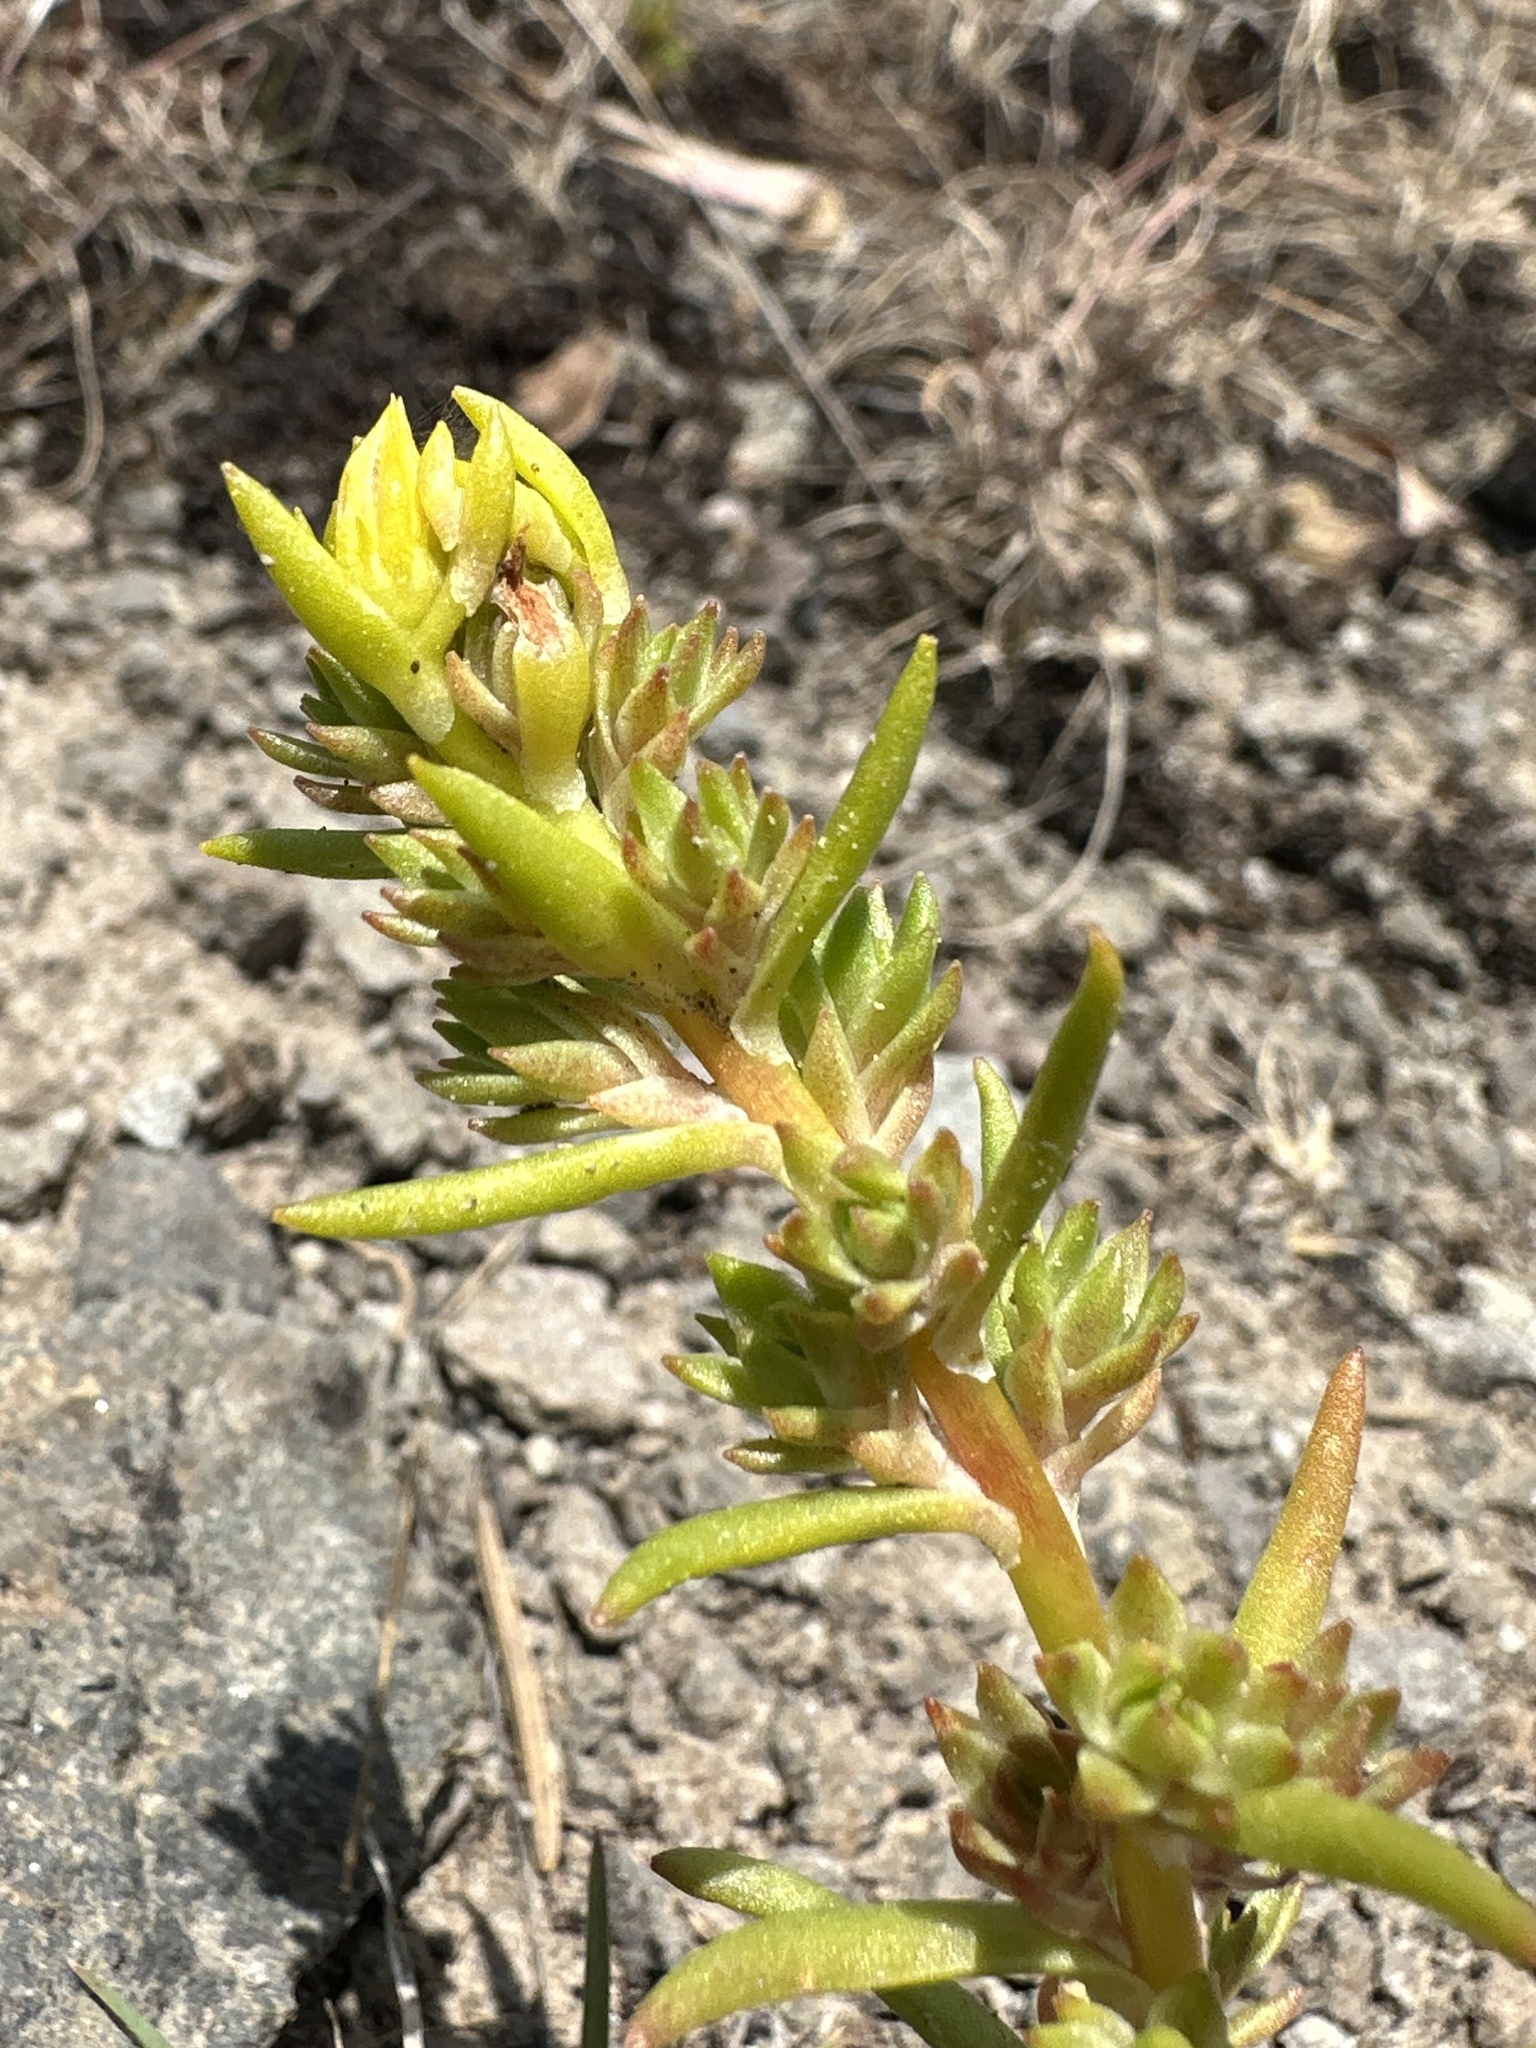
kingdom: Plantae
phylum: Tracheophyta
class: Magnoliopsida
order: Saxifragales
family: Crassulaceae
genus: Sedum
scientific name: Sedum stenopetalum
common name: Narrow-petaled stonecrop
